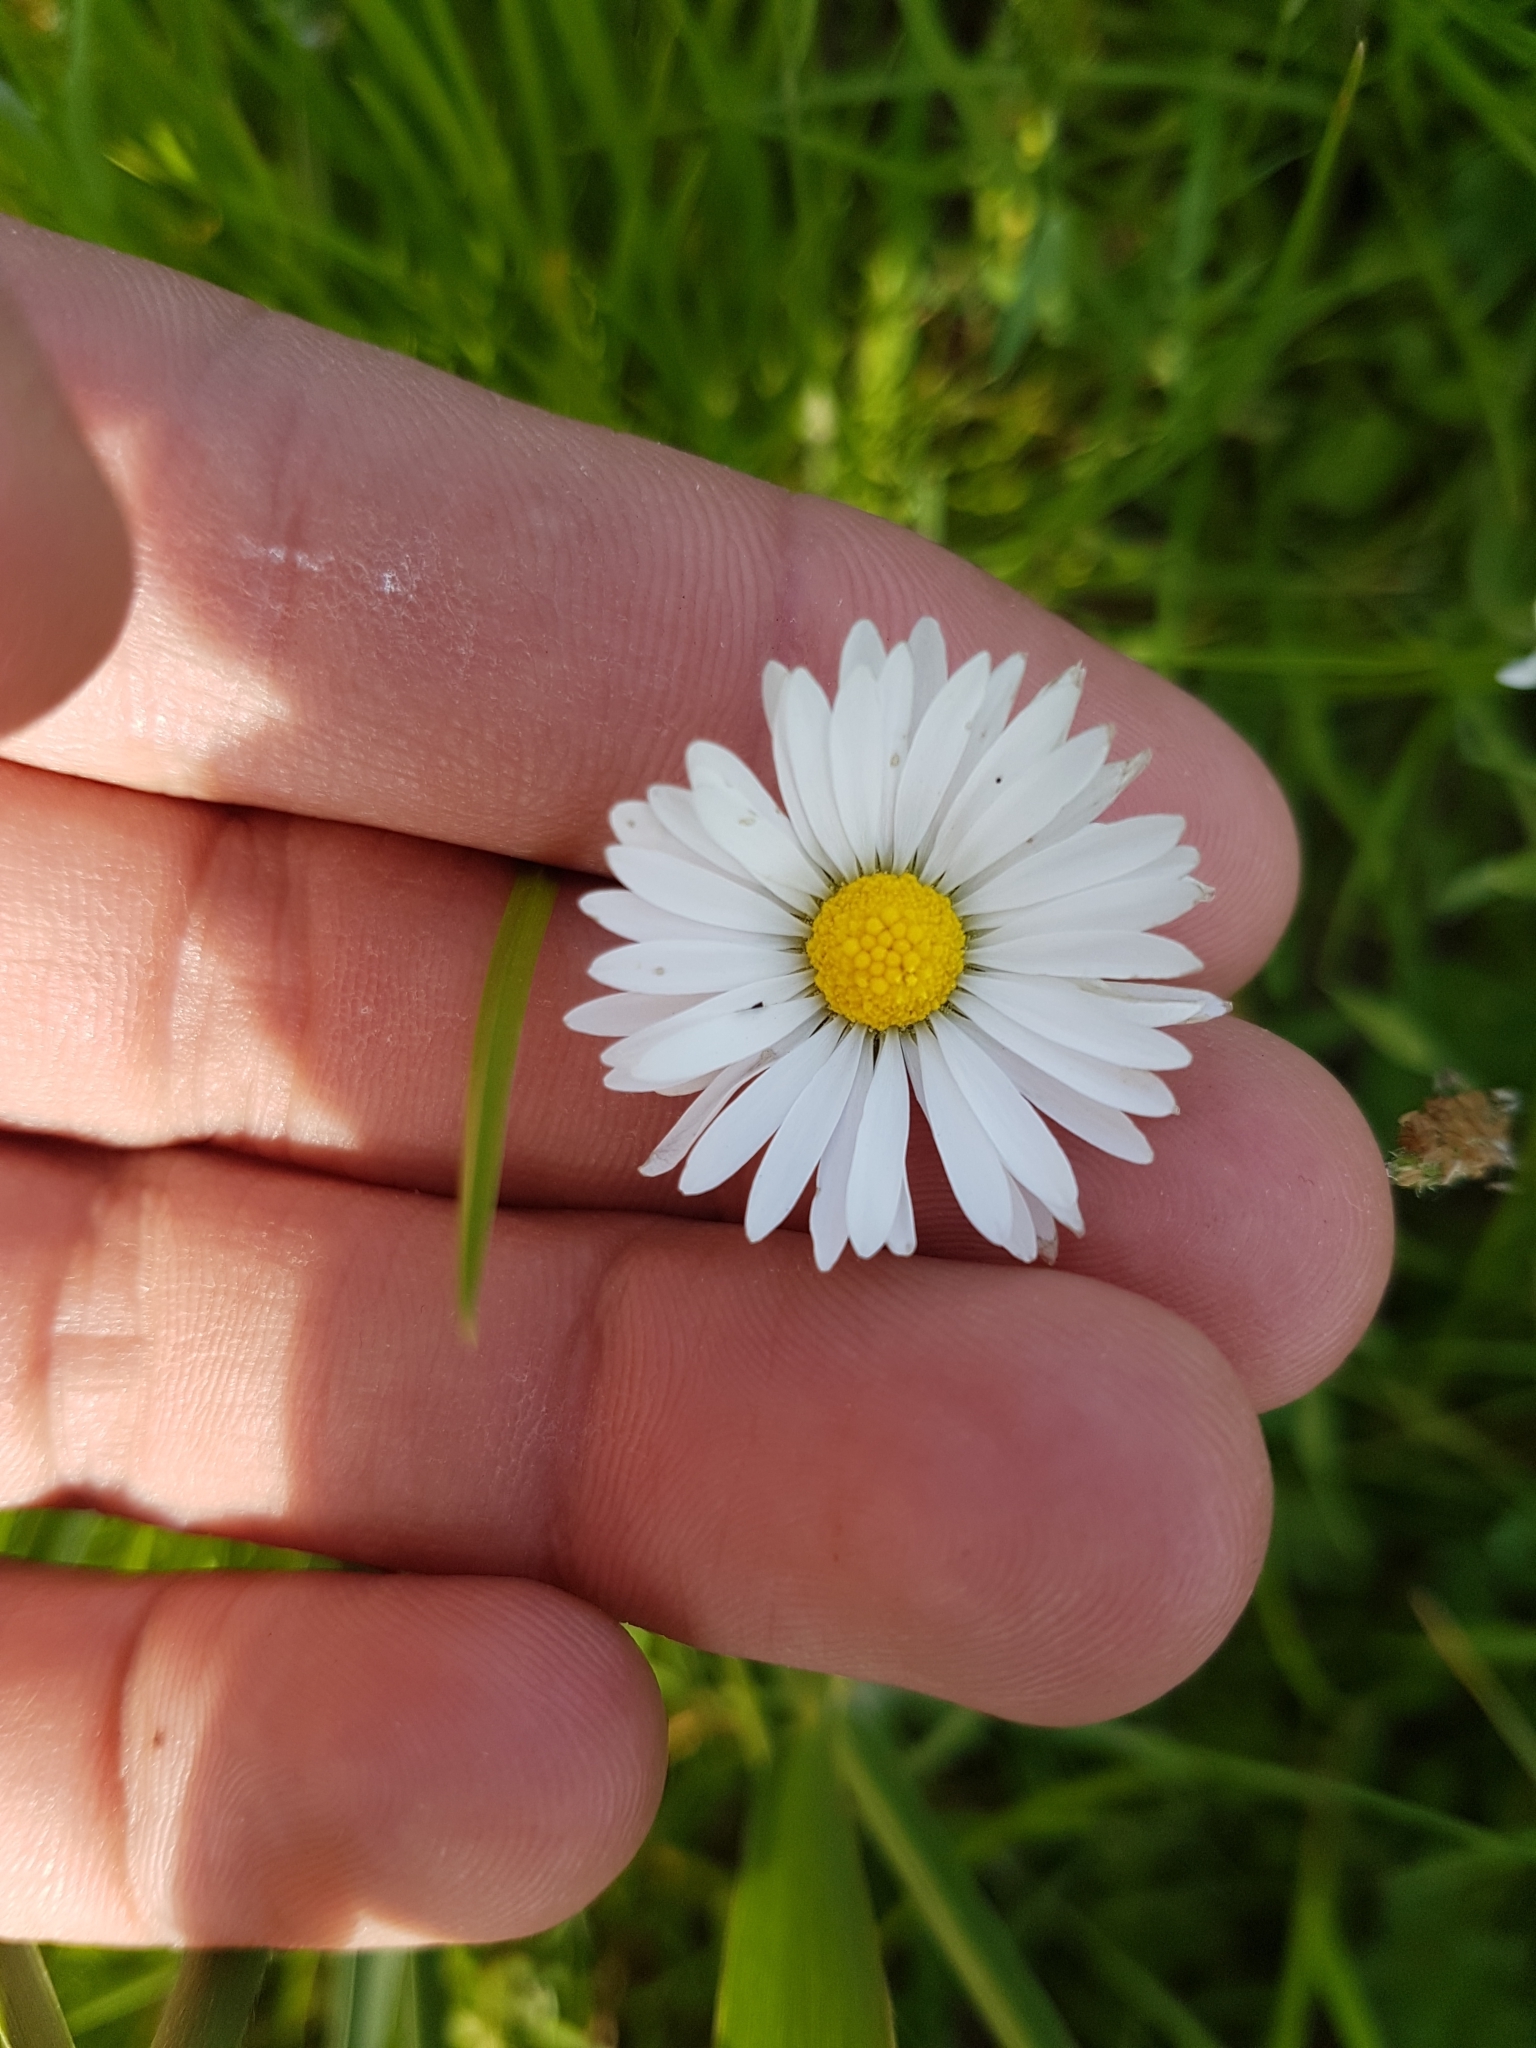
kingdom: Plantae
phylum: Tracheophyta
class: Magnoliopsida
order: Asterales
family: Asteraceae
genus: Bellis
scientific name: Bellis perennis
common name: Lawndaisy
